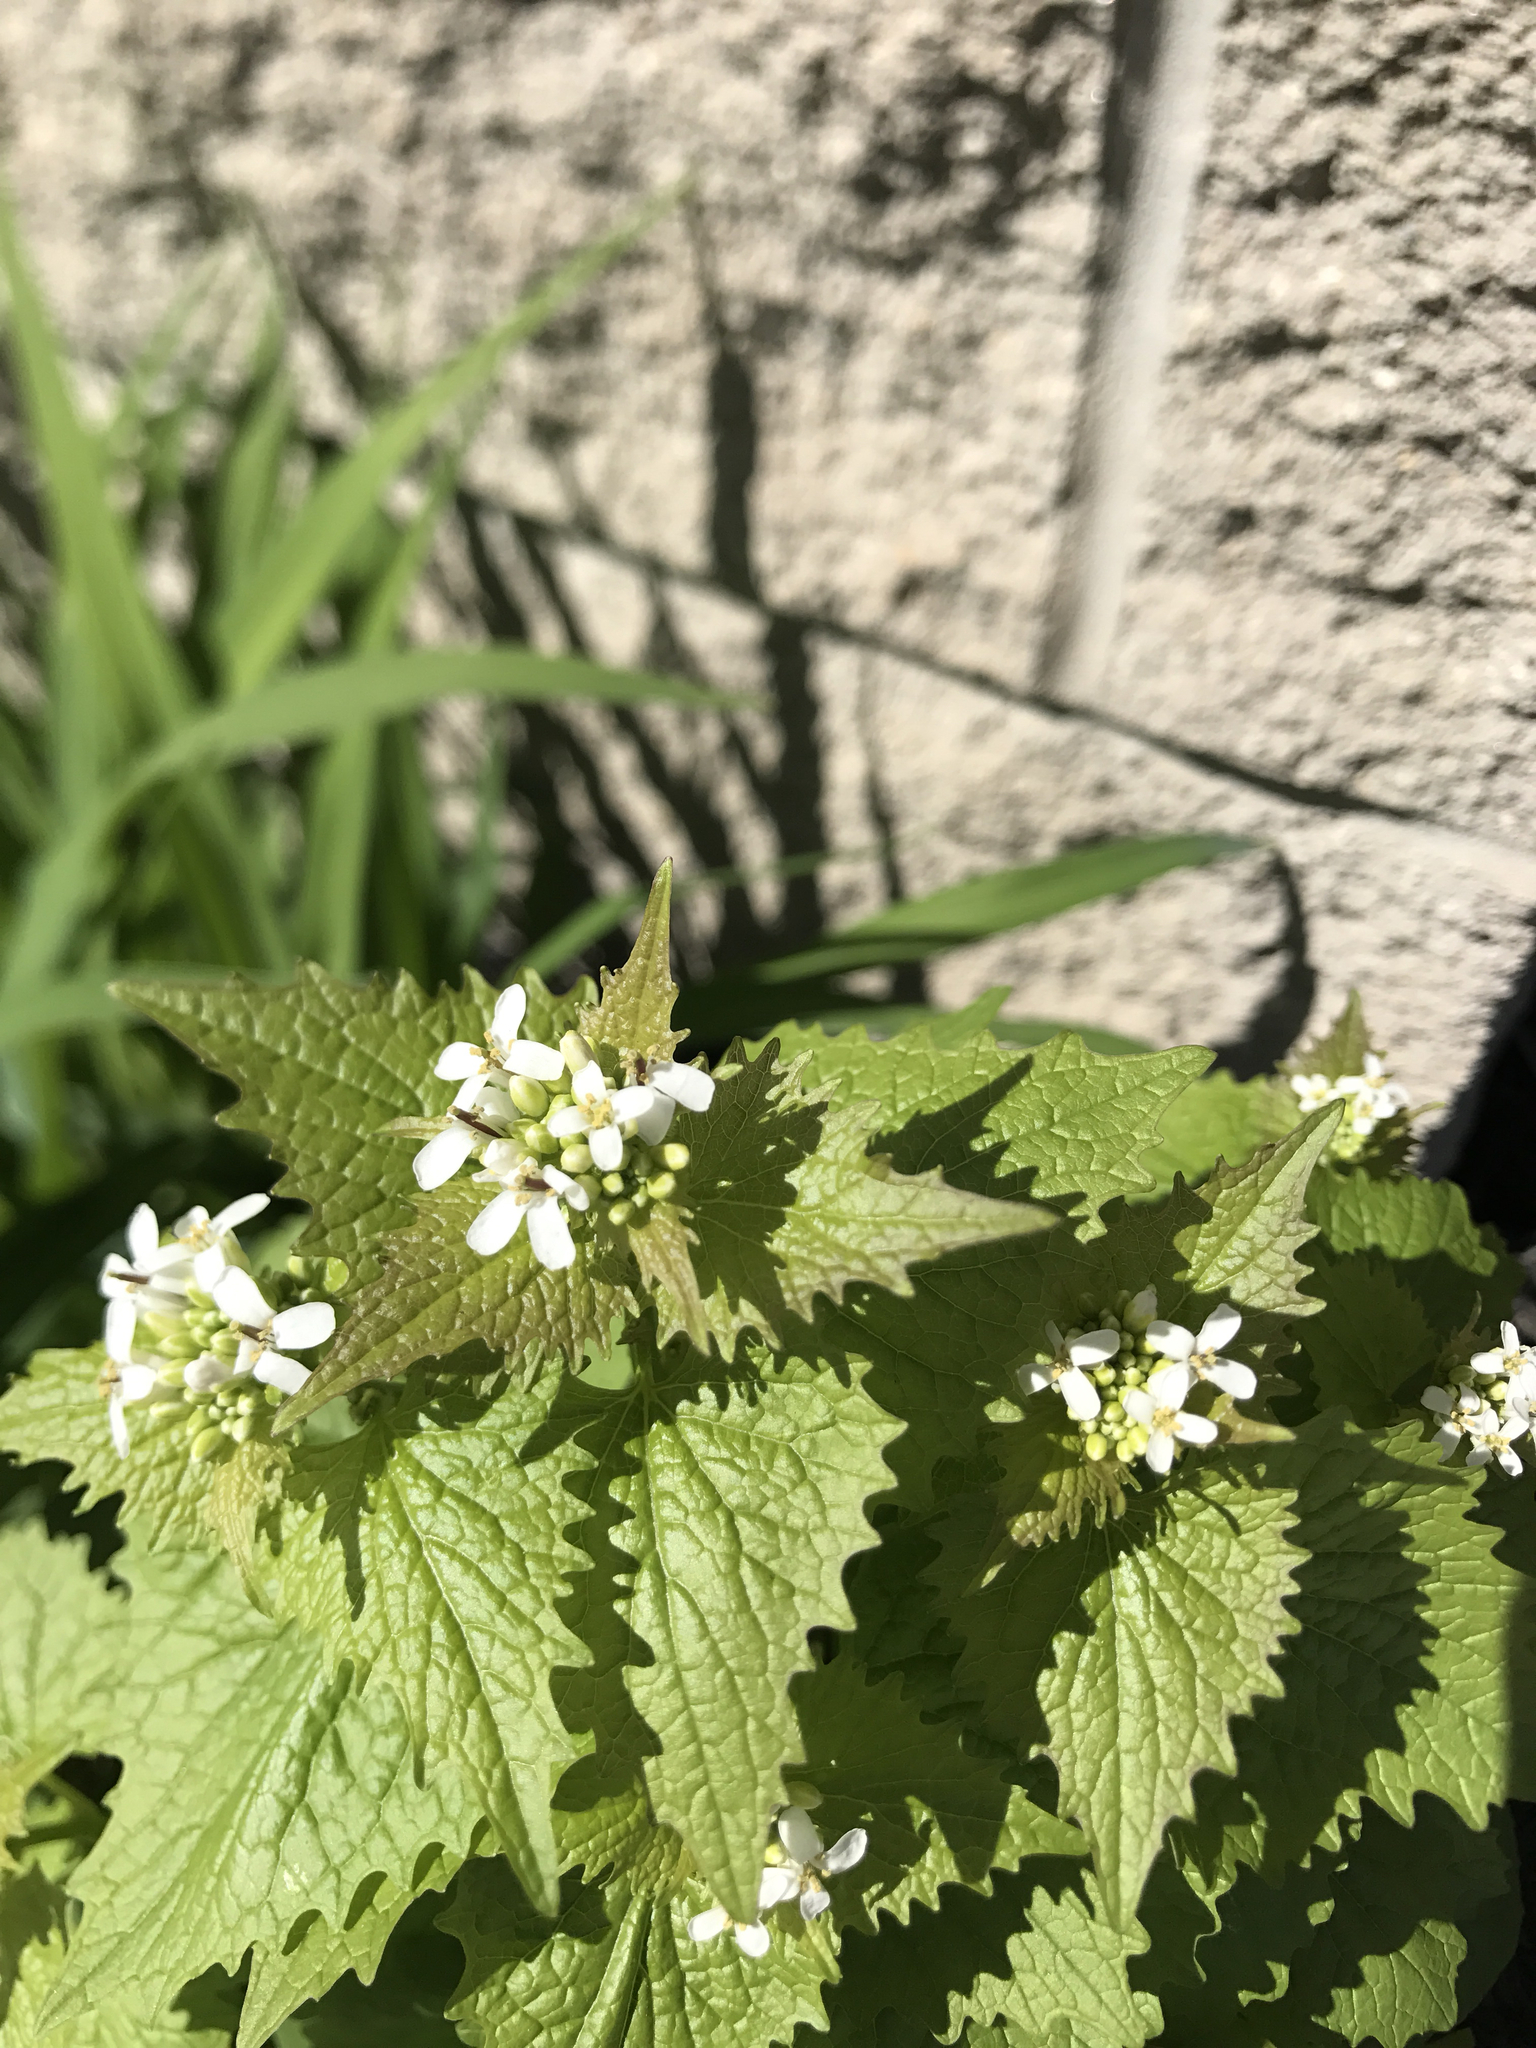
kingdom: Plantae
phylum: Tracheophyta
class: Magnoliopsida
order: Brassicales
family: Brassicaceae
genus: Alliaria
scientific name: Alliaria petiolata
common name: Garlic mustard
